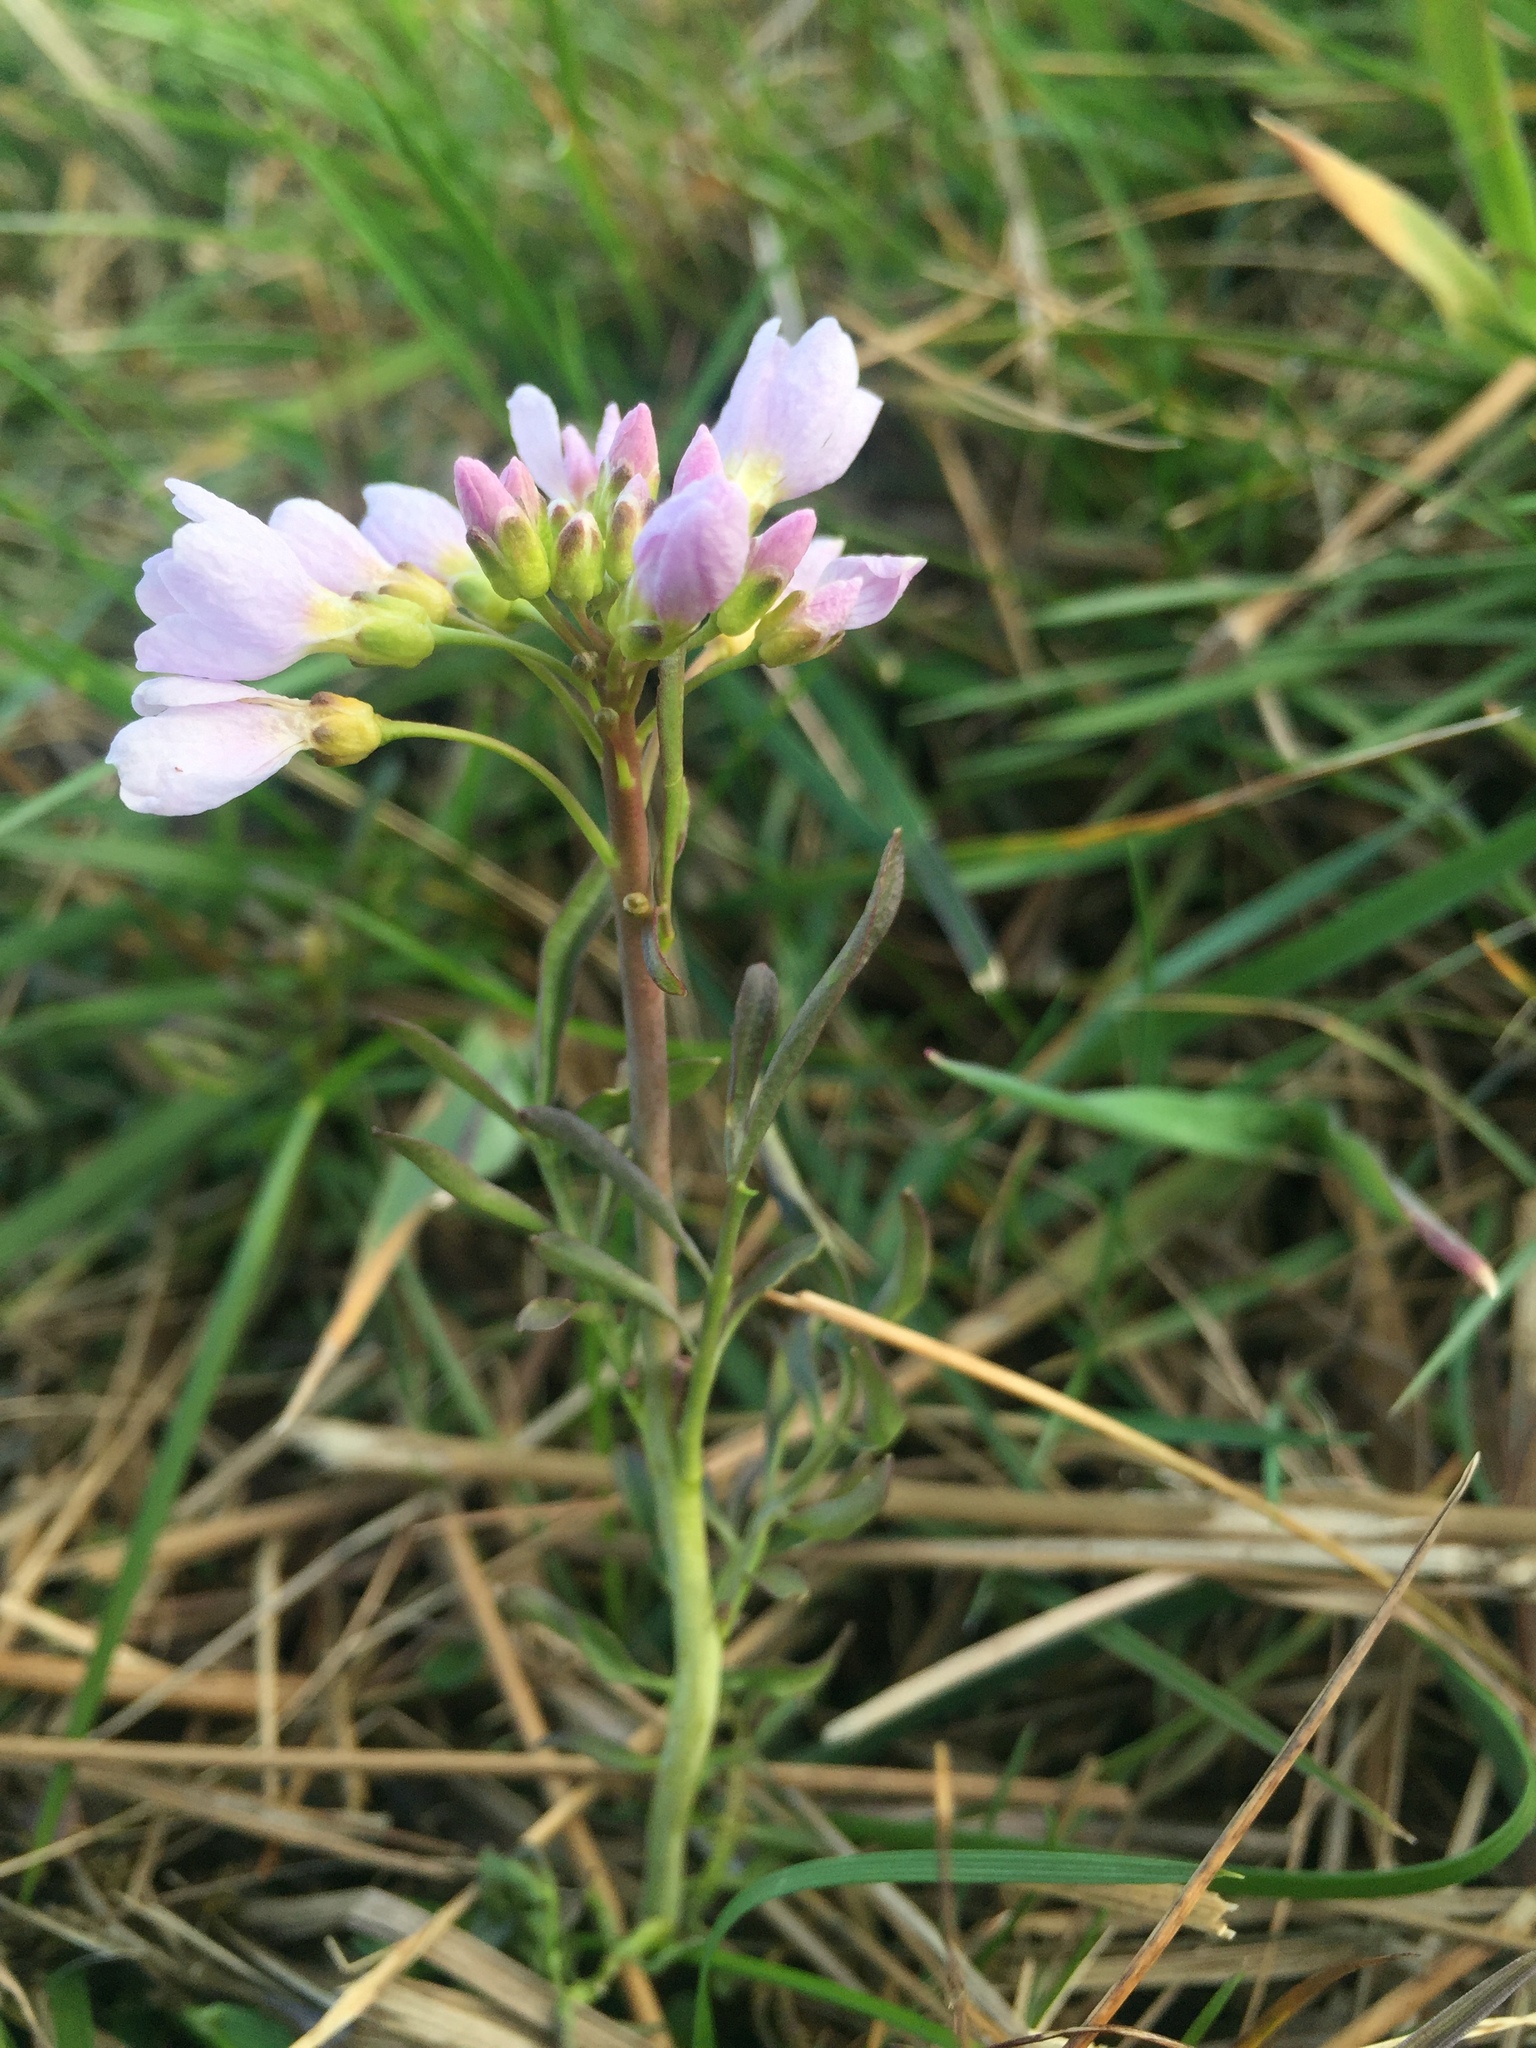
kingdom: Plantae
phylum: Tracheophyta
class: Magnoliopsida
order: Brassicales
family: Brassicaceae
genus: Cardamine
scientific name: Cardamine pratensis
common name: Cuckoo flower
